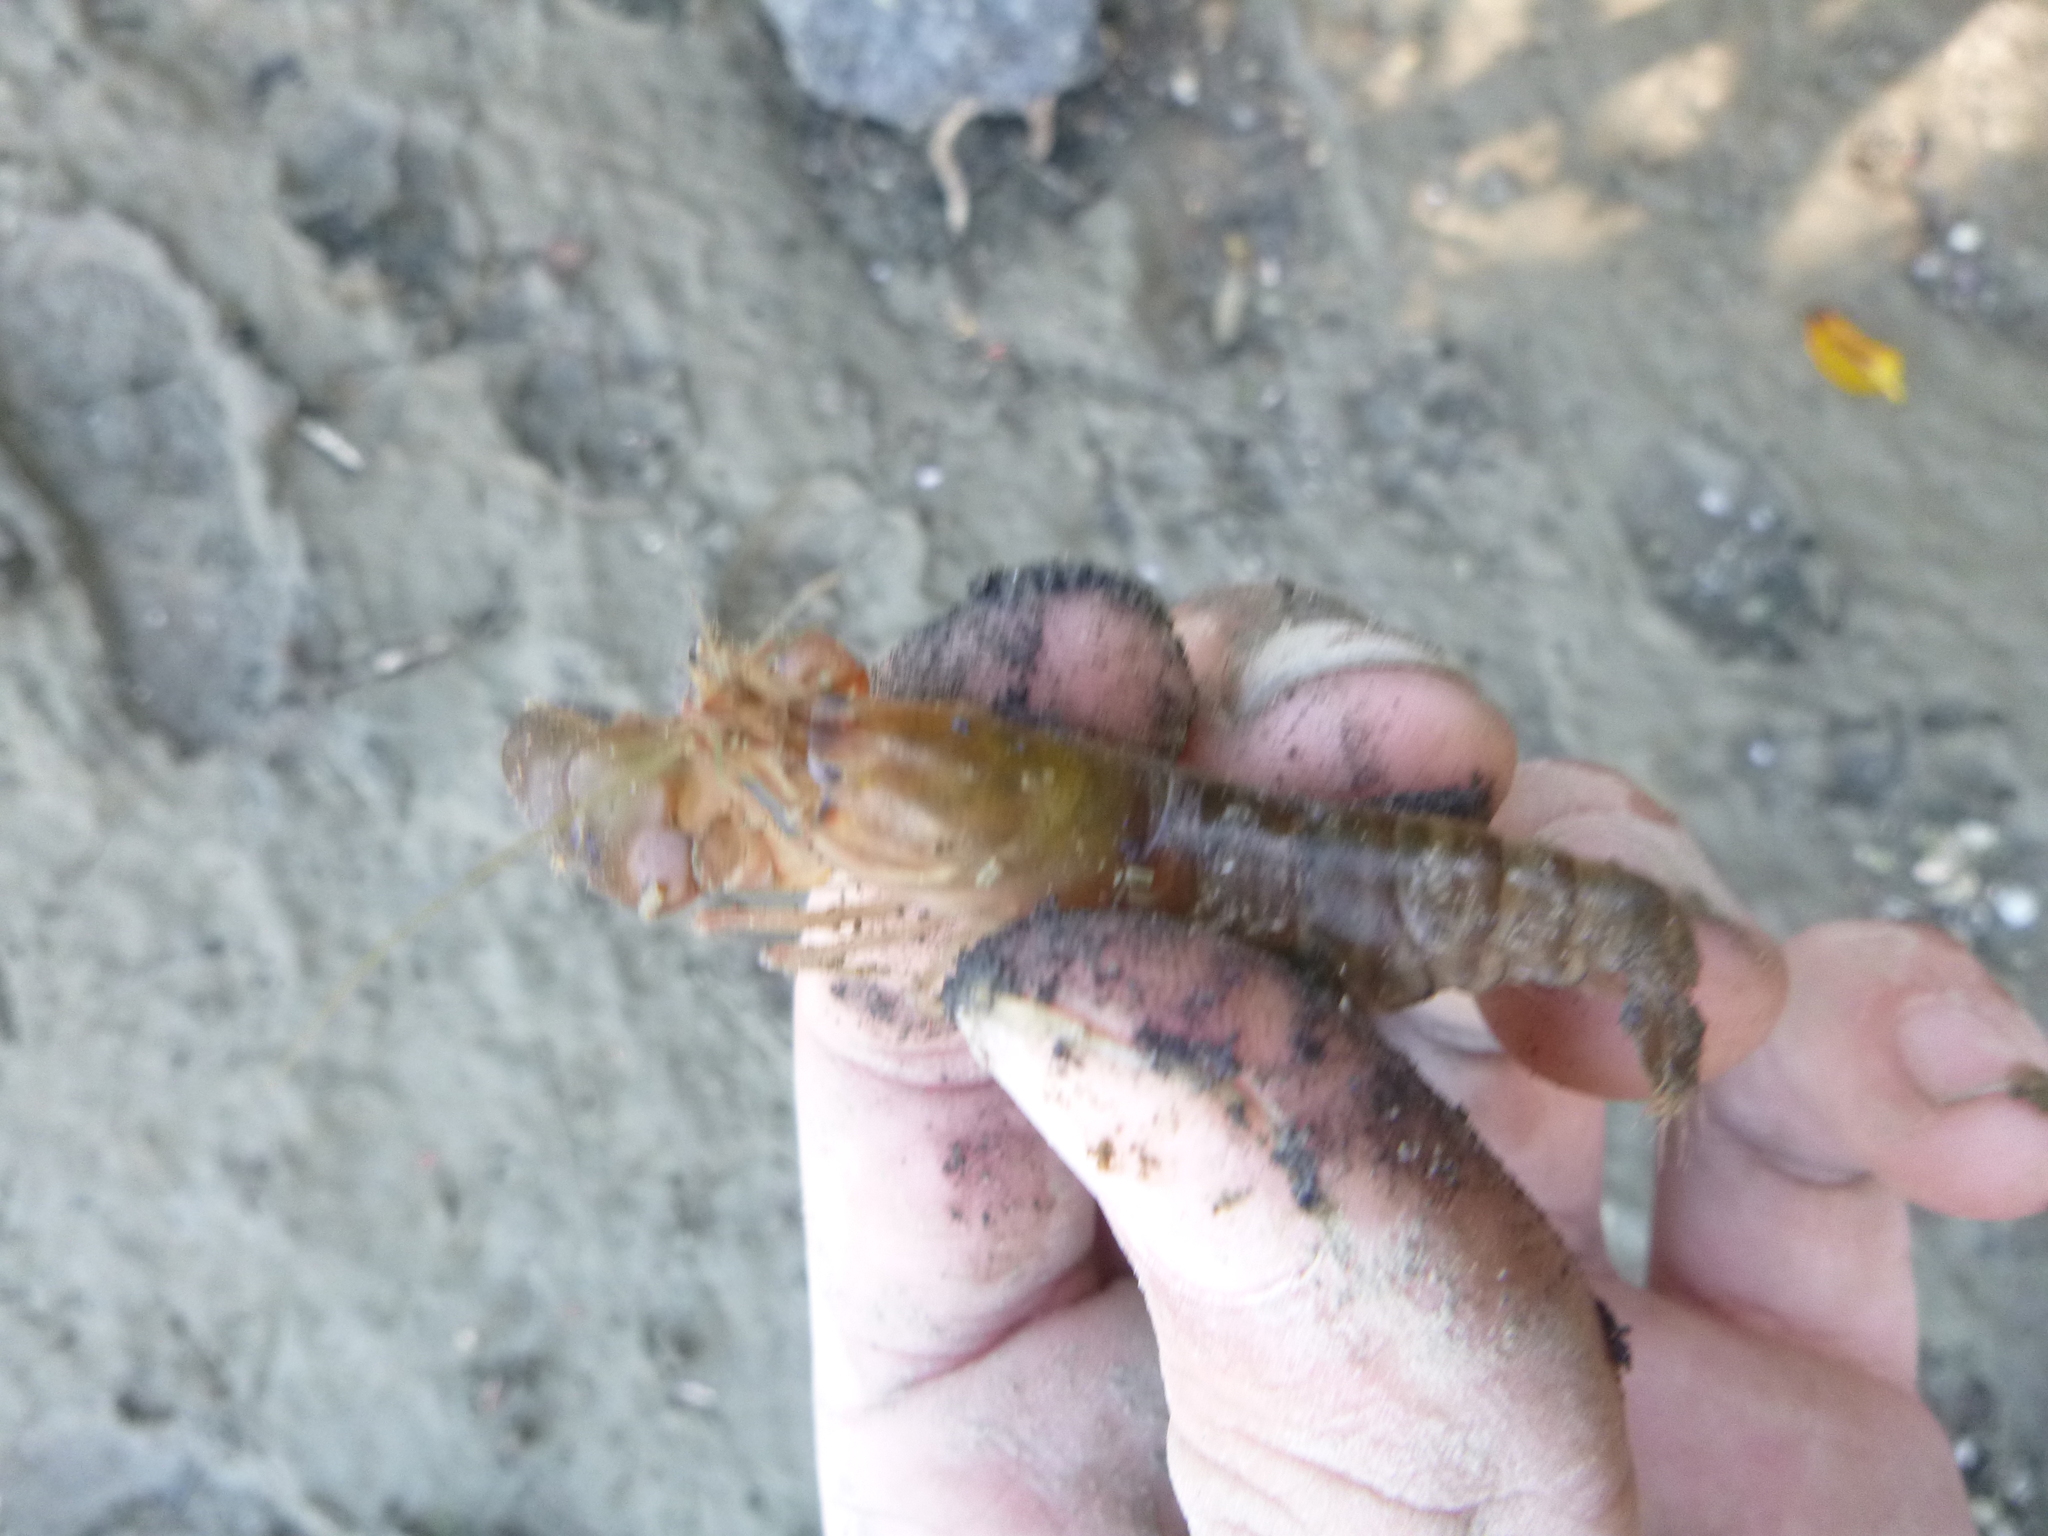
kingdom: Animalia
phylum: Arthropoda
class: Malacostraca
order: Decapoda
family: Alpheidae
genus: Alpheus
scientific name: Alpheus richardsoni
